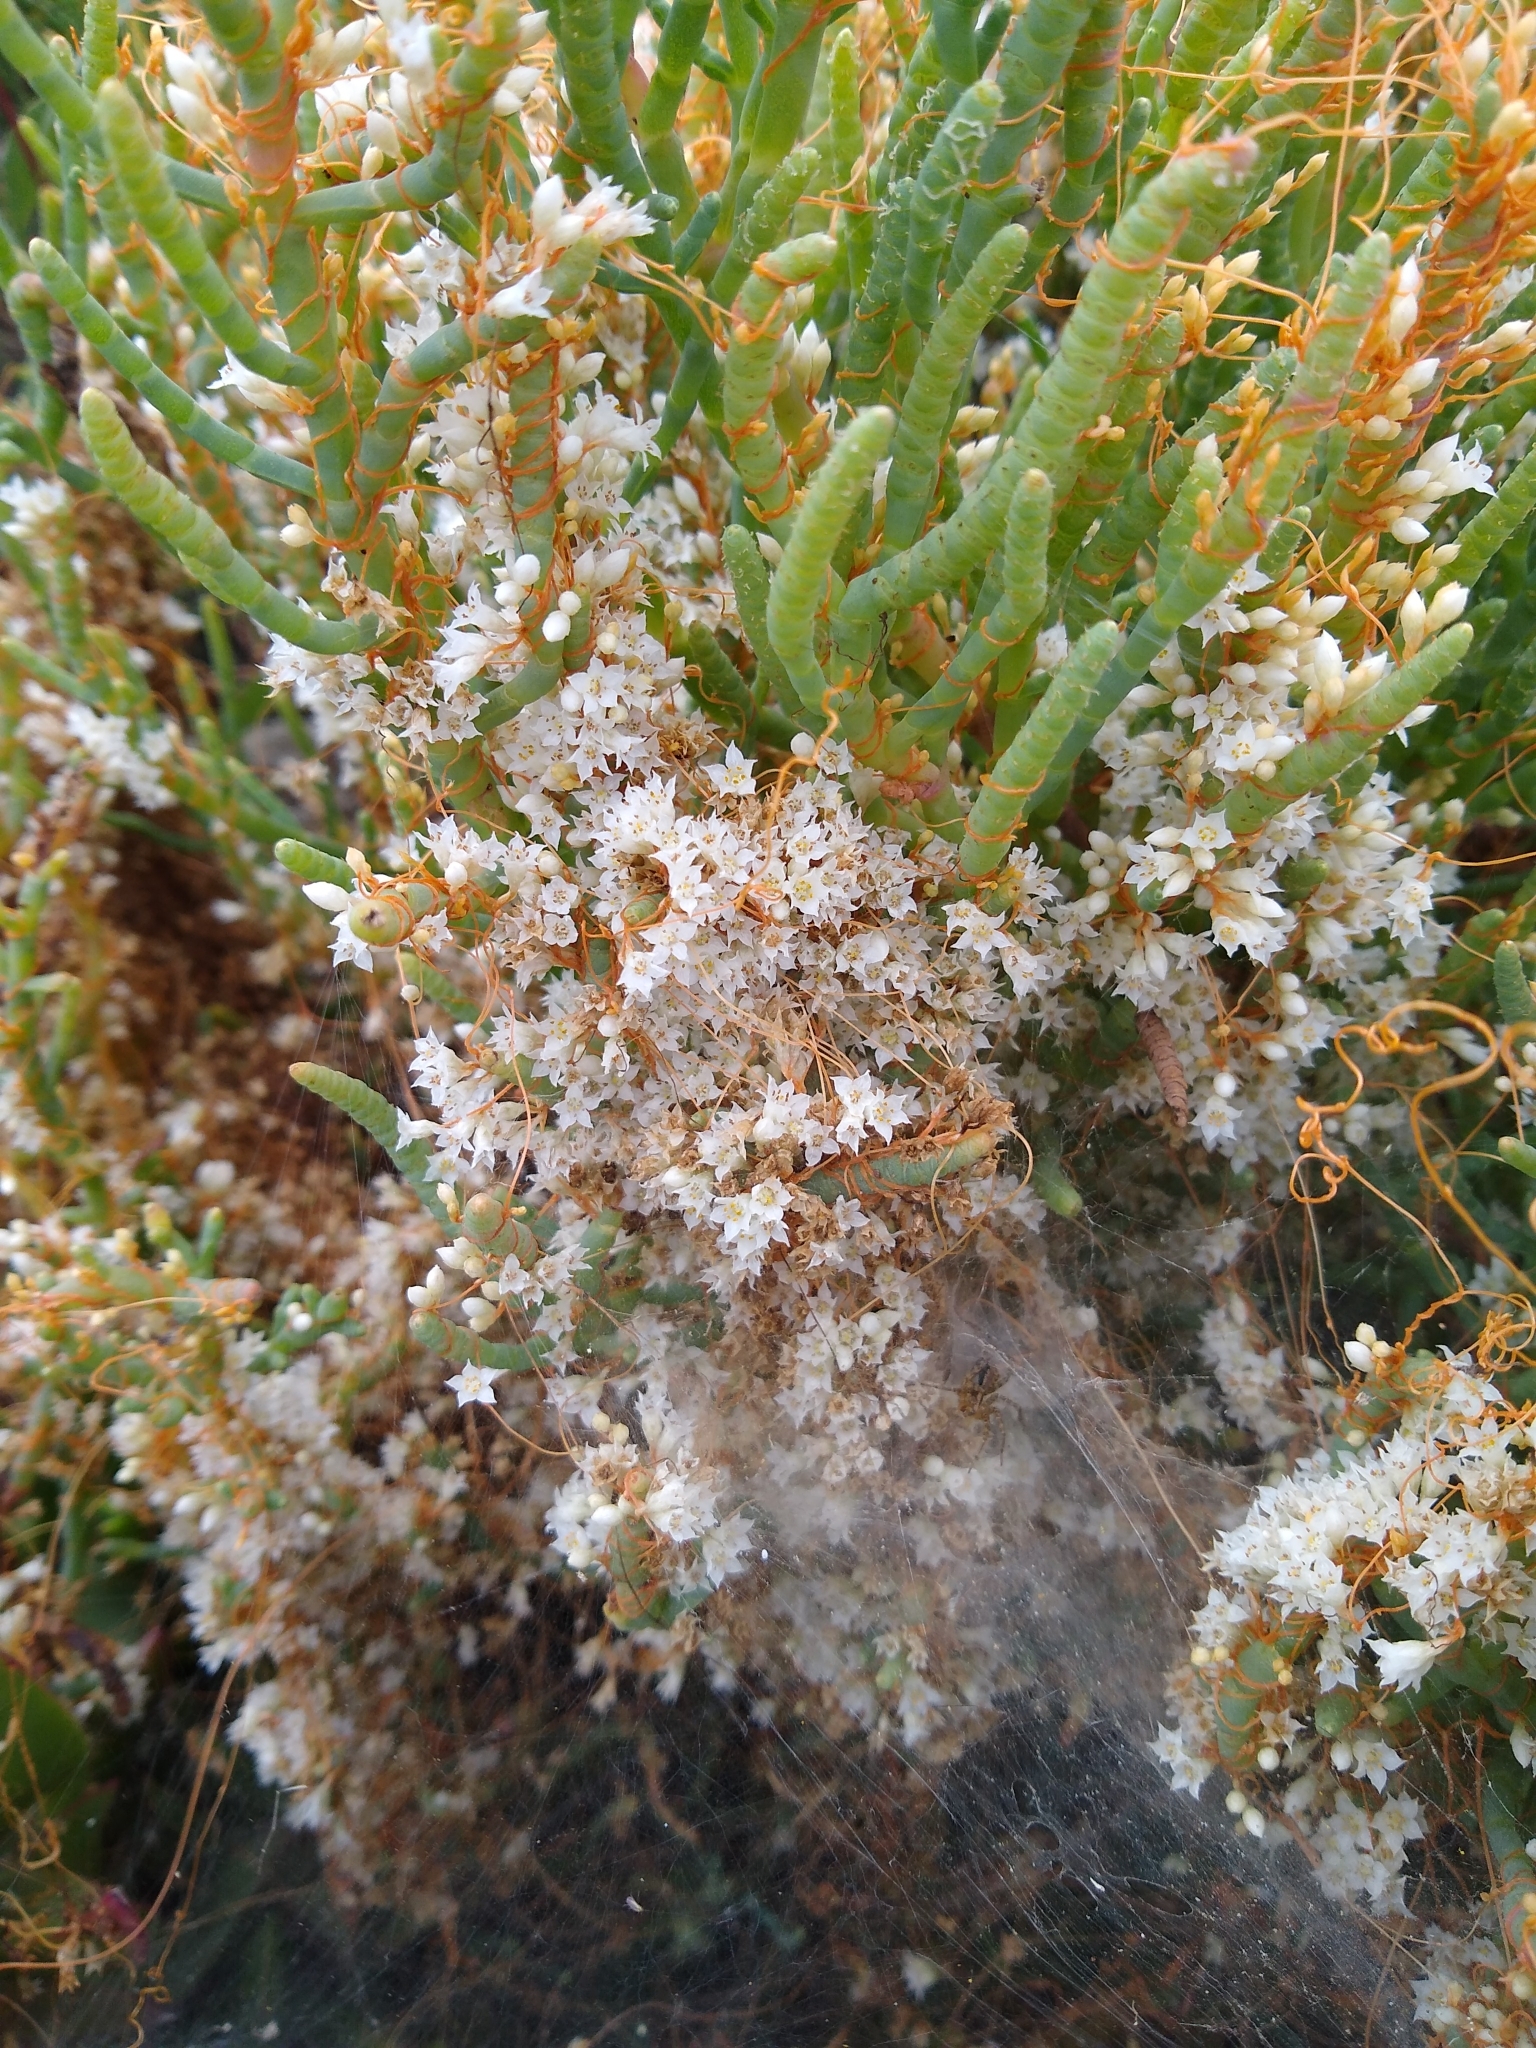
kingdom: Plantae
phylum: Tracheophyta
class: Magnoliopsida
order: Solanales
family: Convolvulaceae
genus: Cuscuta
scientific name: Cuscuta pacifica
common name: Large saltmarsh dodder
